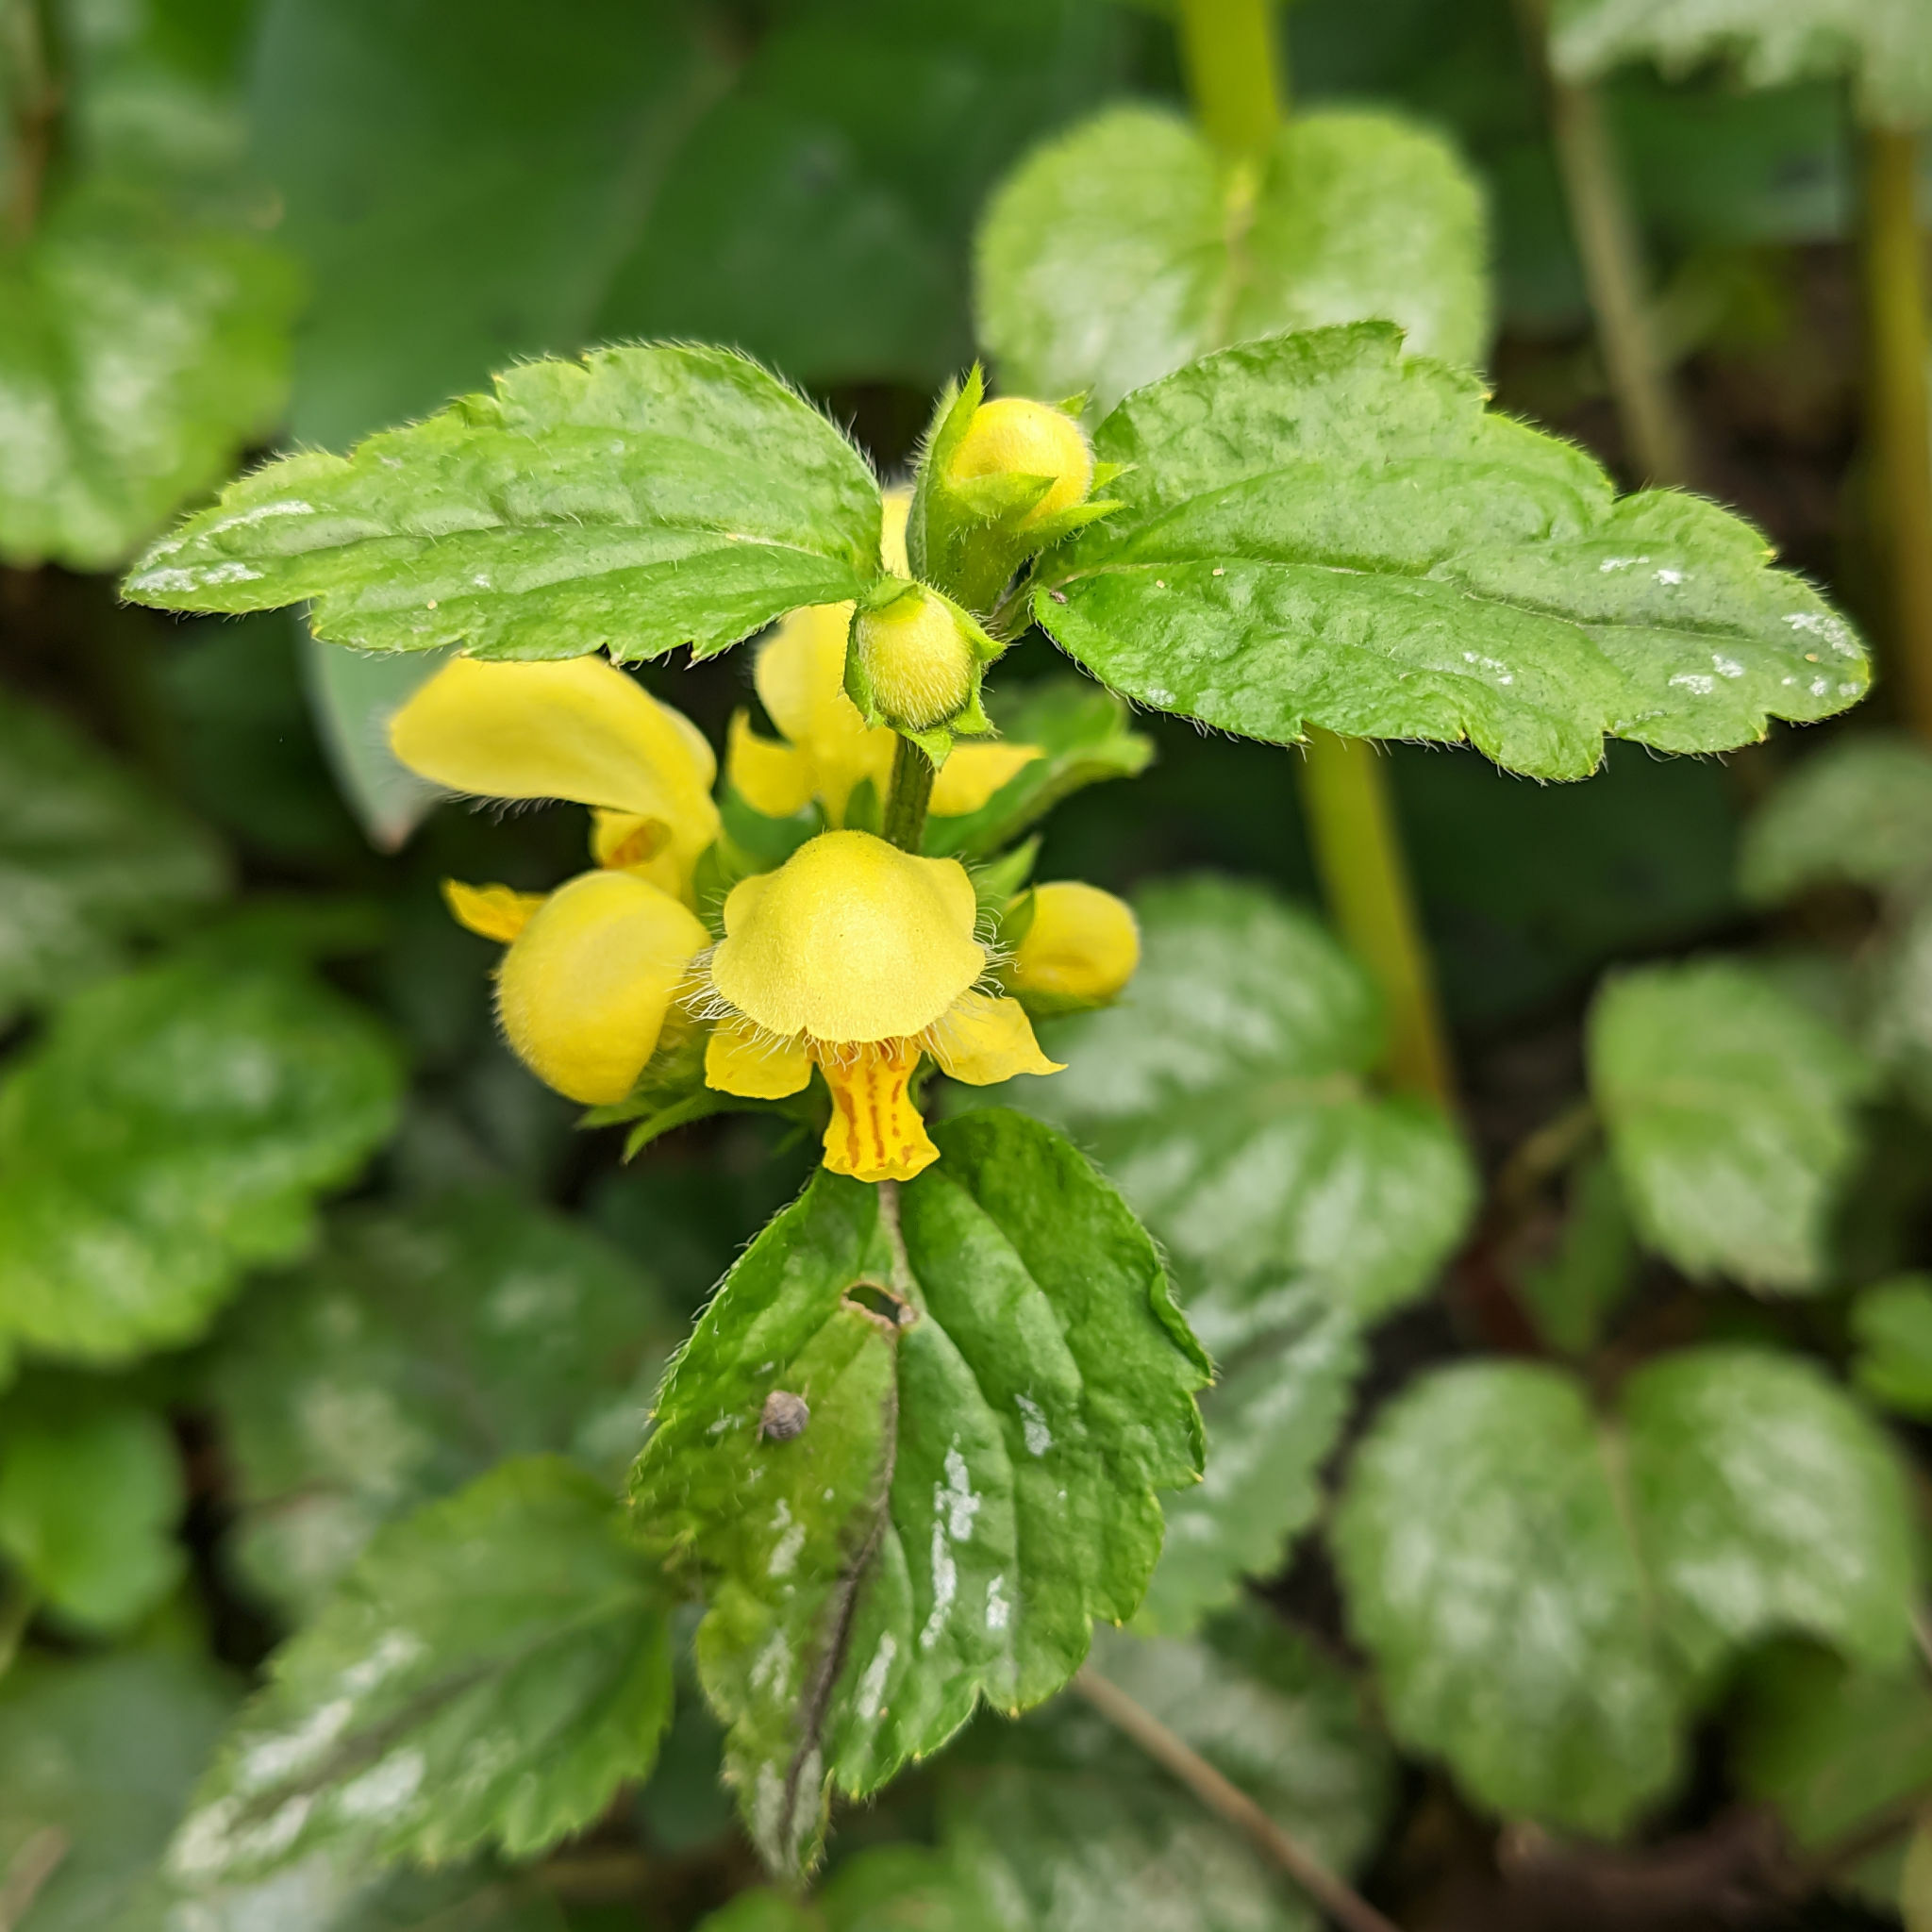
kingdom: Plantae
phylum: Tracheophyta
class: Magnoliopsida
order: Lamiales
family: Lamiaceae
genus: Lamium
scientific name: Lamium galeobdolon
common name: Yellow archangel
